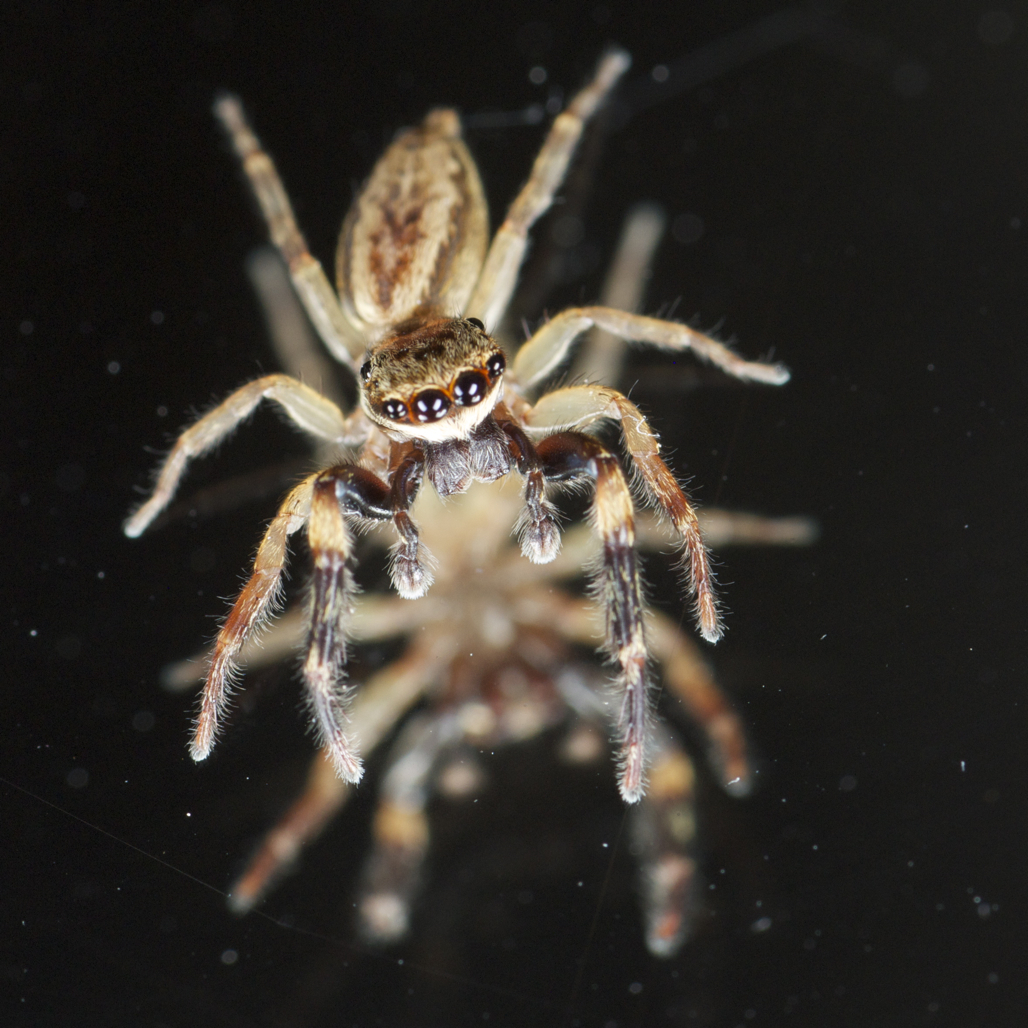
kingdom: Animalia
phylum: Arthropoda
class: Arachnida
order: Araneae
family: Salticidae
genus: Trite
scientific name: Trite auricoma
